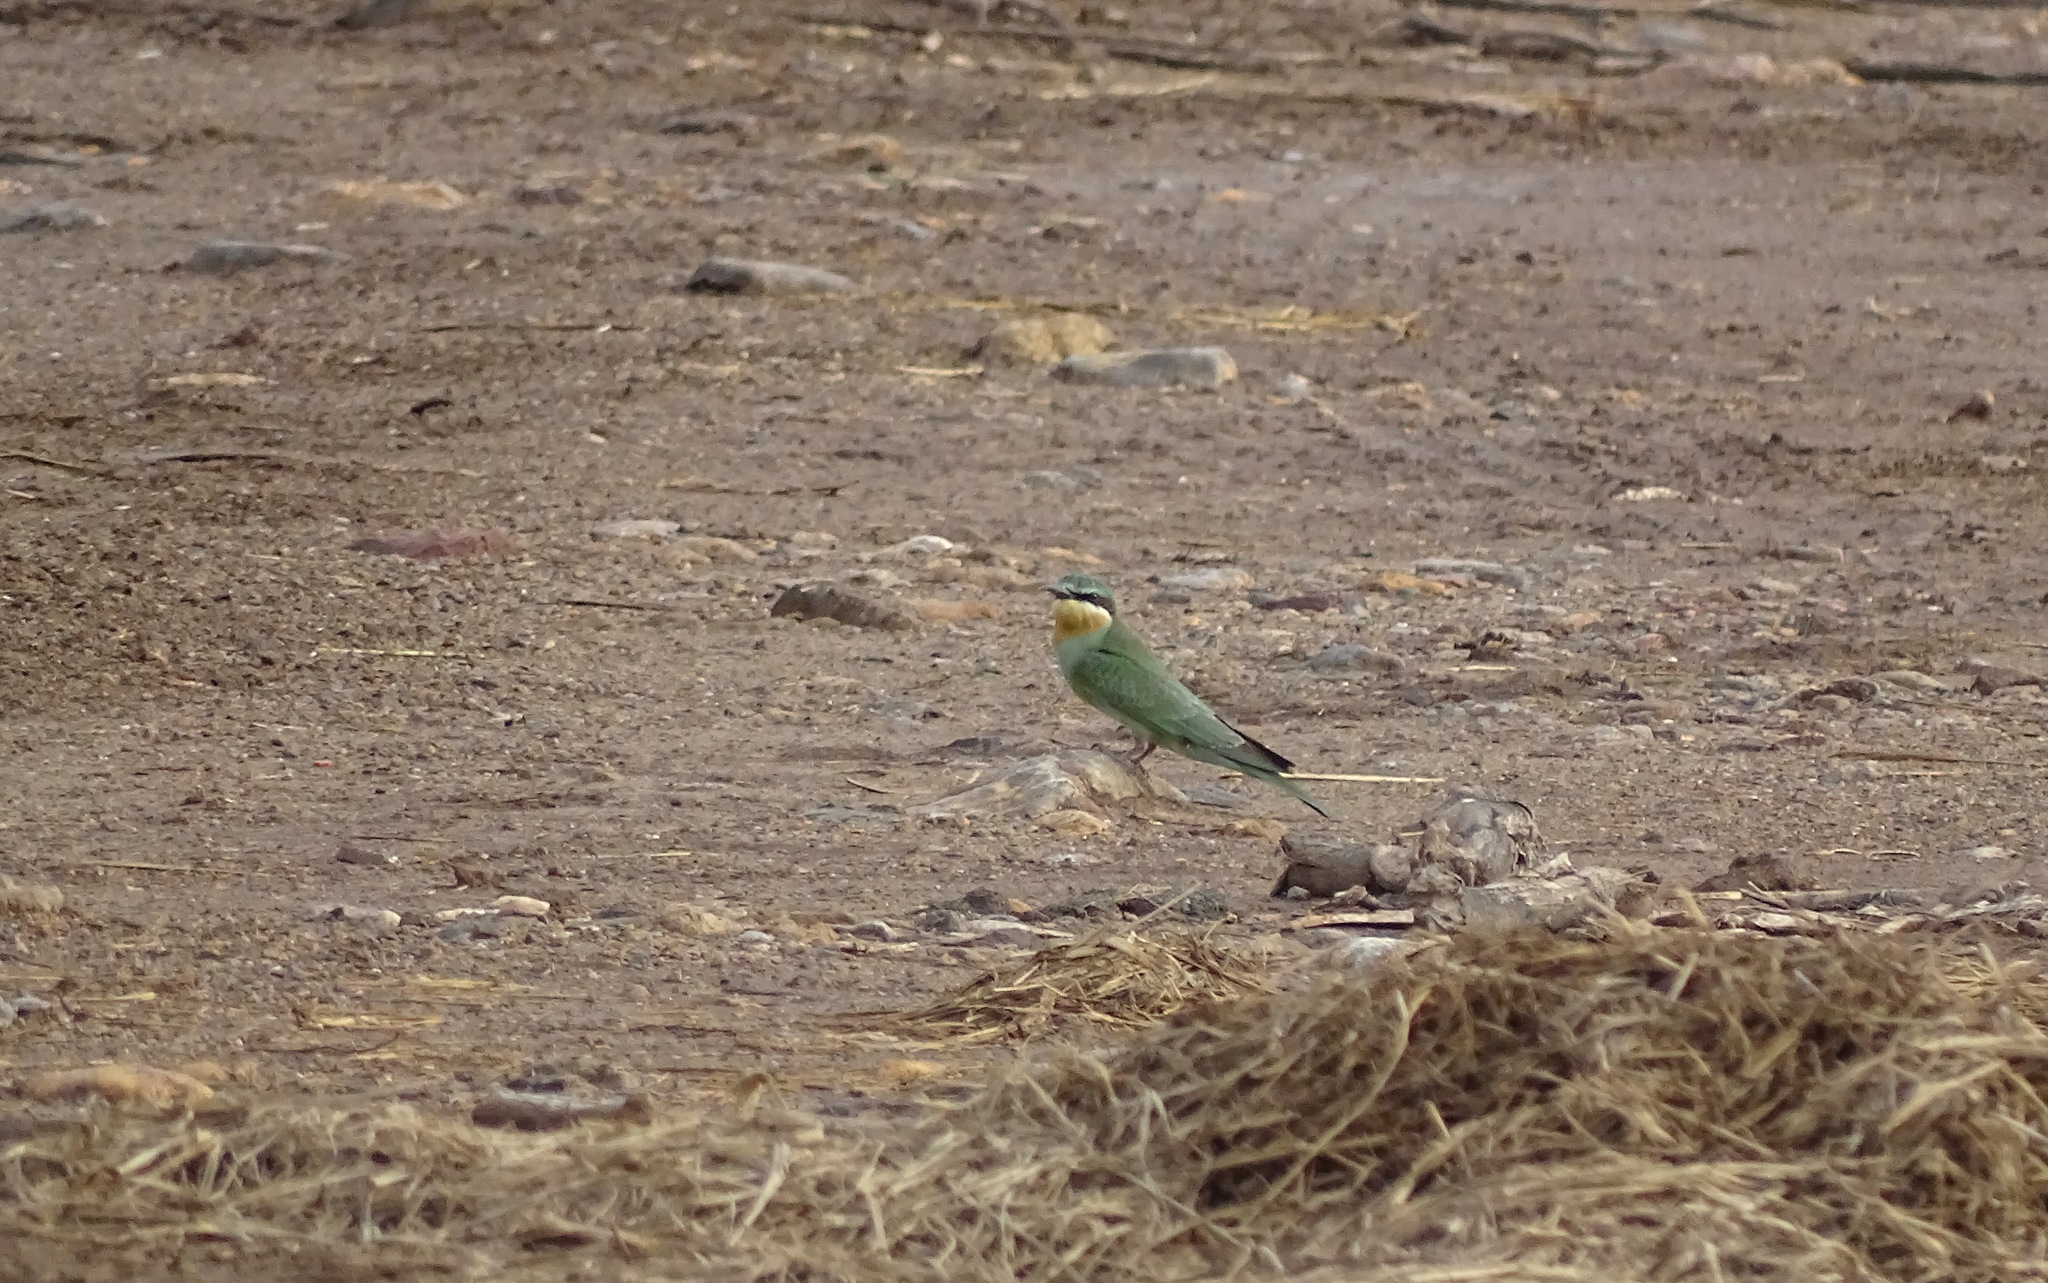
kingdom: Animalia
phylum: Chordata
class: Aves
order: Coraciiformes
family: Meropidae
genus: Merops
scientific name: Merops persicus
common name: Blue-cheeked bee-eater
